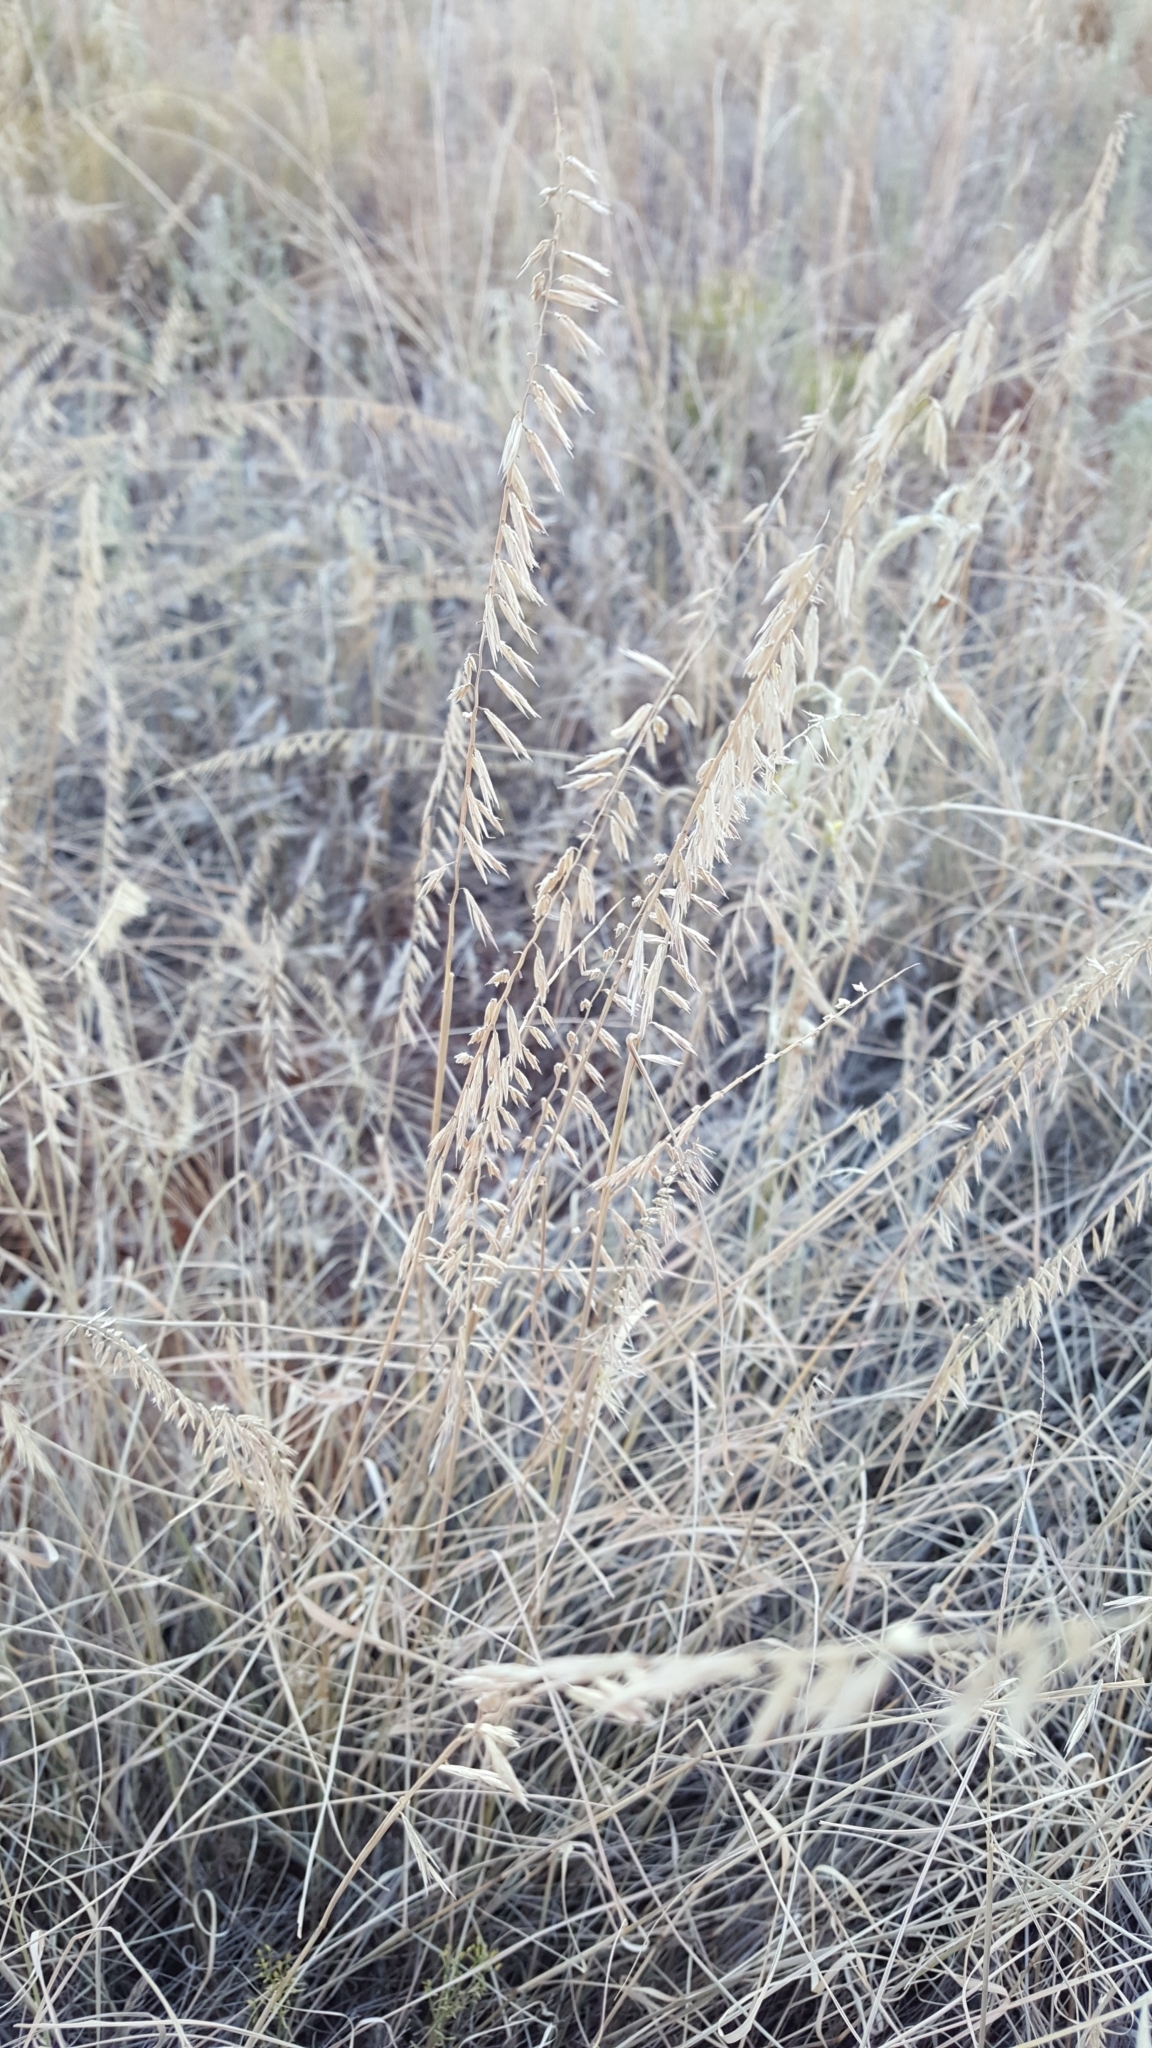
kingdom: Plantae
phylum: Tracheophyta
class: Liliopsida
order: Poales
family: Poaceae
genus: Bouteloua
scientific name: Bouteloua curtipendula
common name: Side-oats grama
